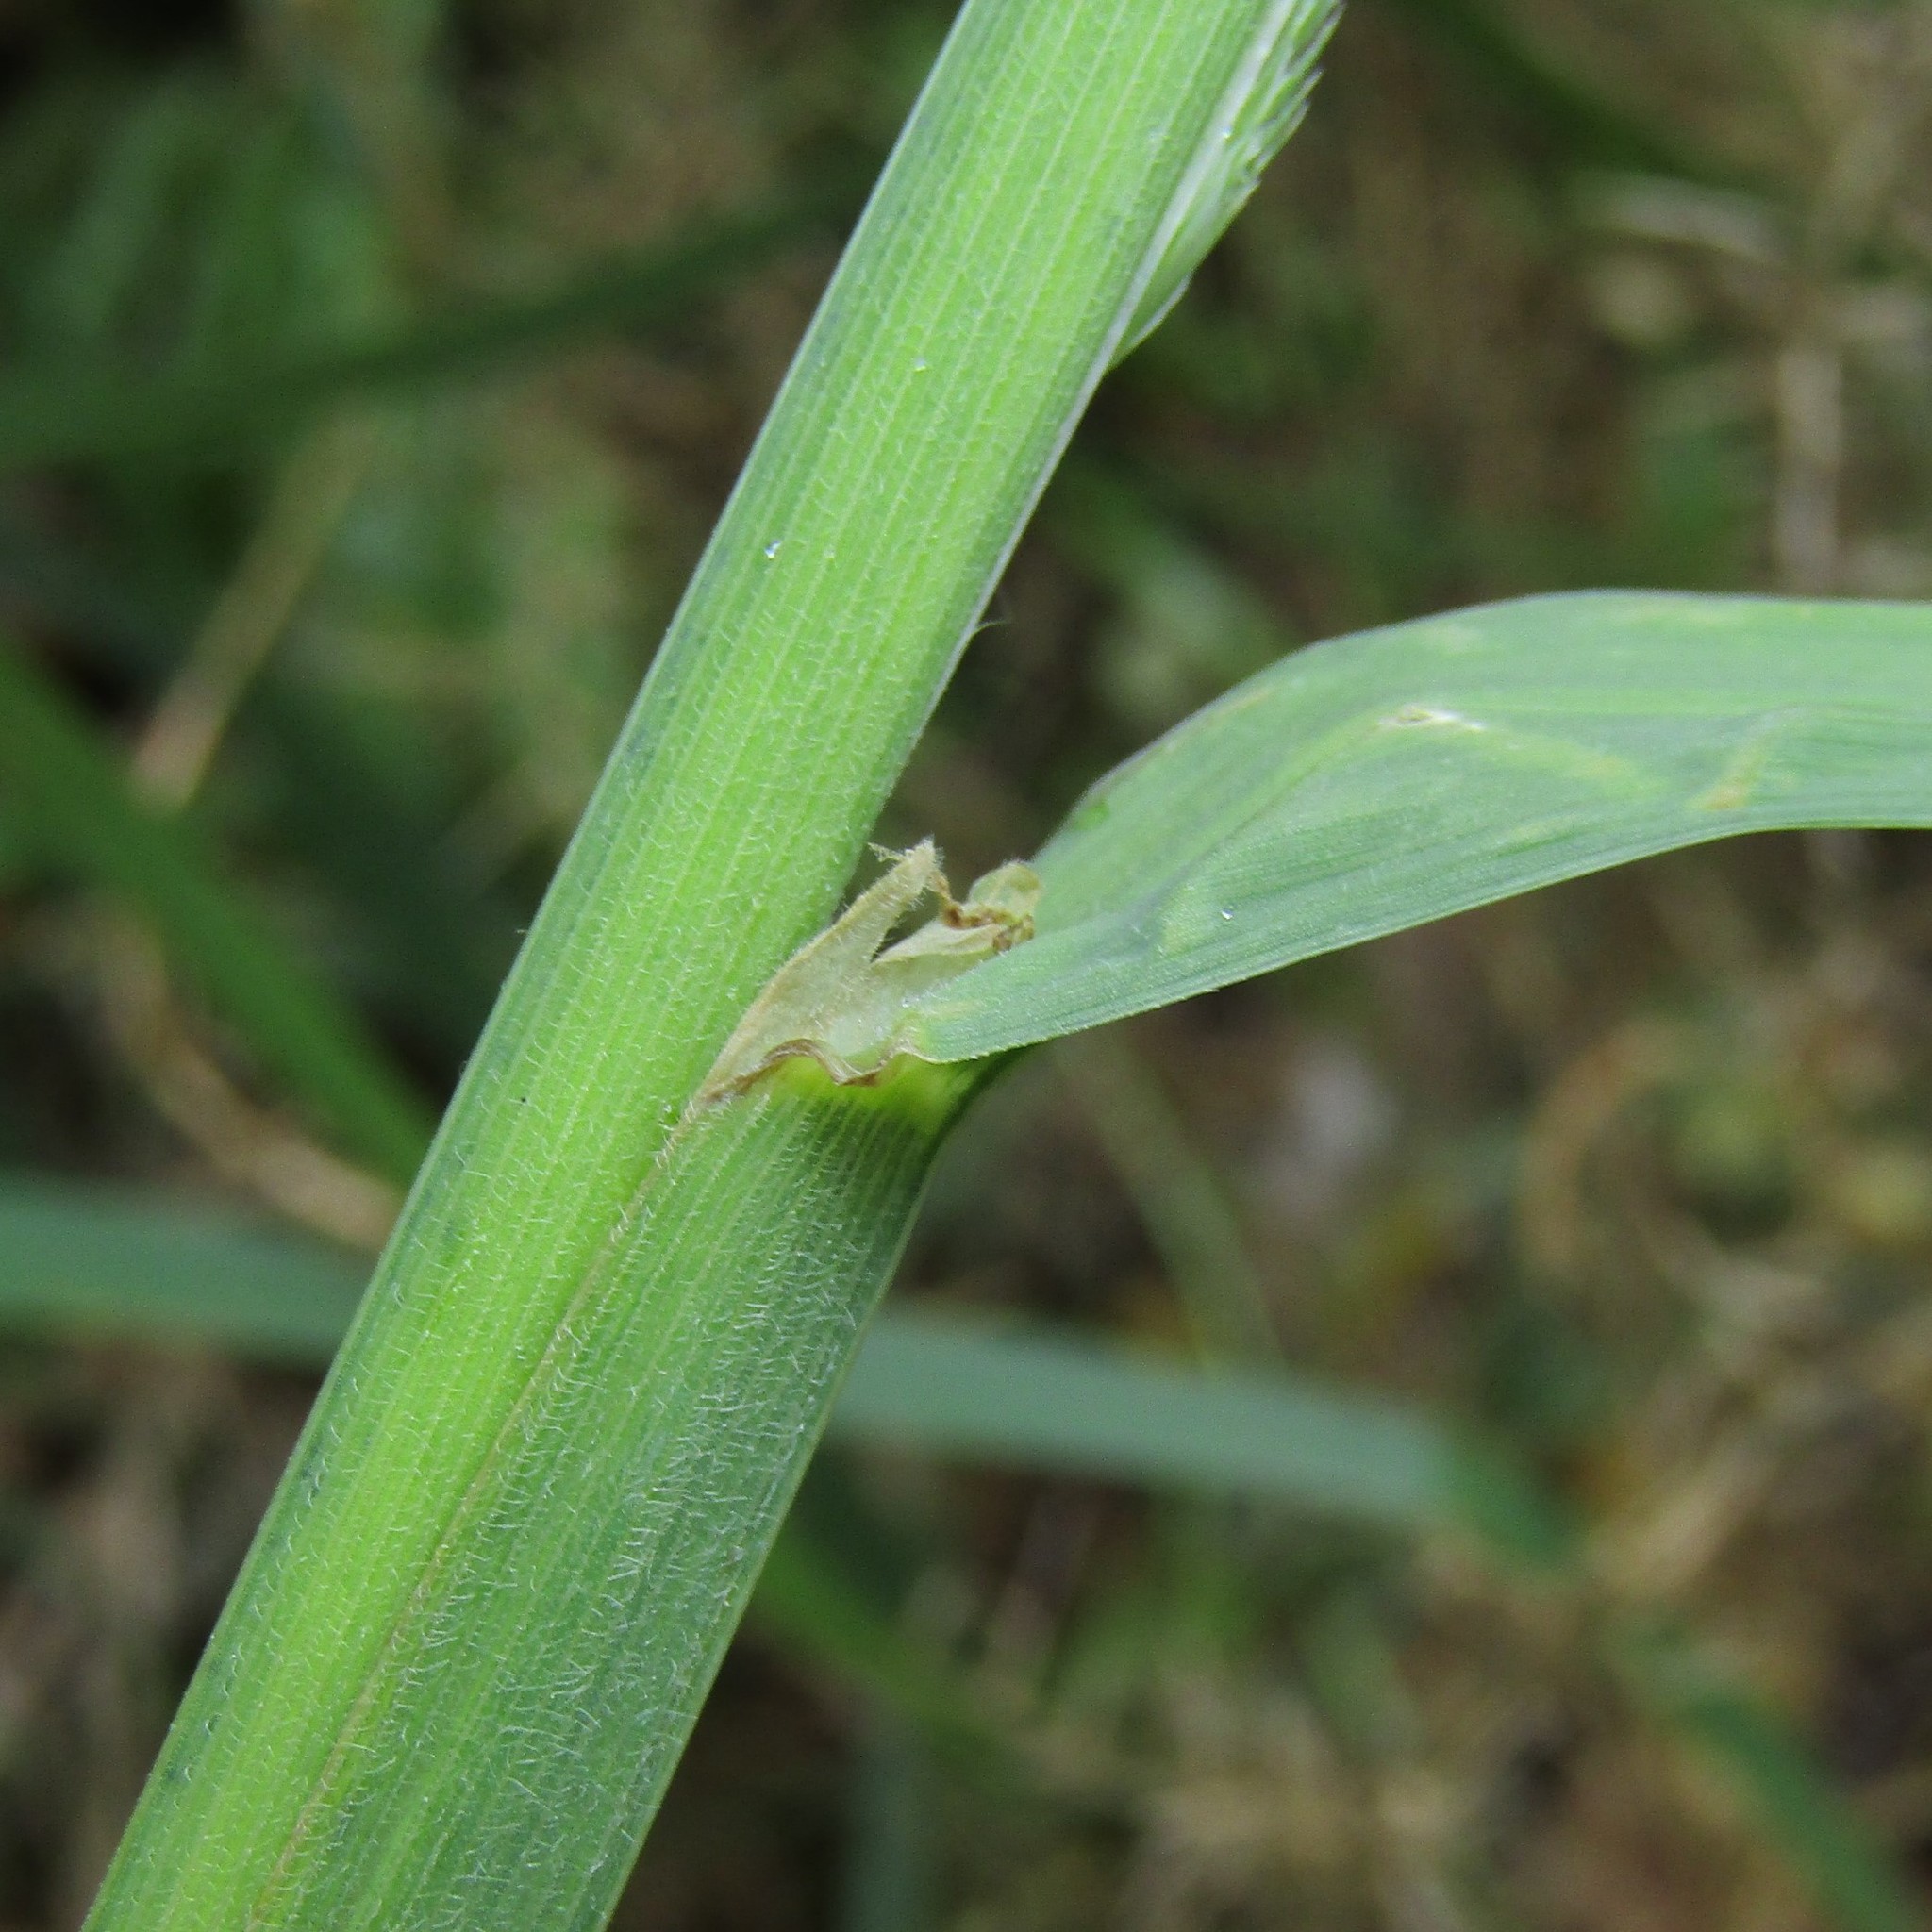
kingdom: Plantae
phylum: Tracheophyta
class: Liliopsida
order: Poales
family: Poaceae
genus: Dactylis
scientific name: Dactylis glomerata
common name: Orchardgrass
